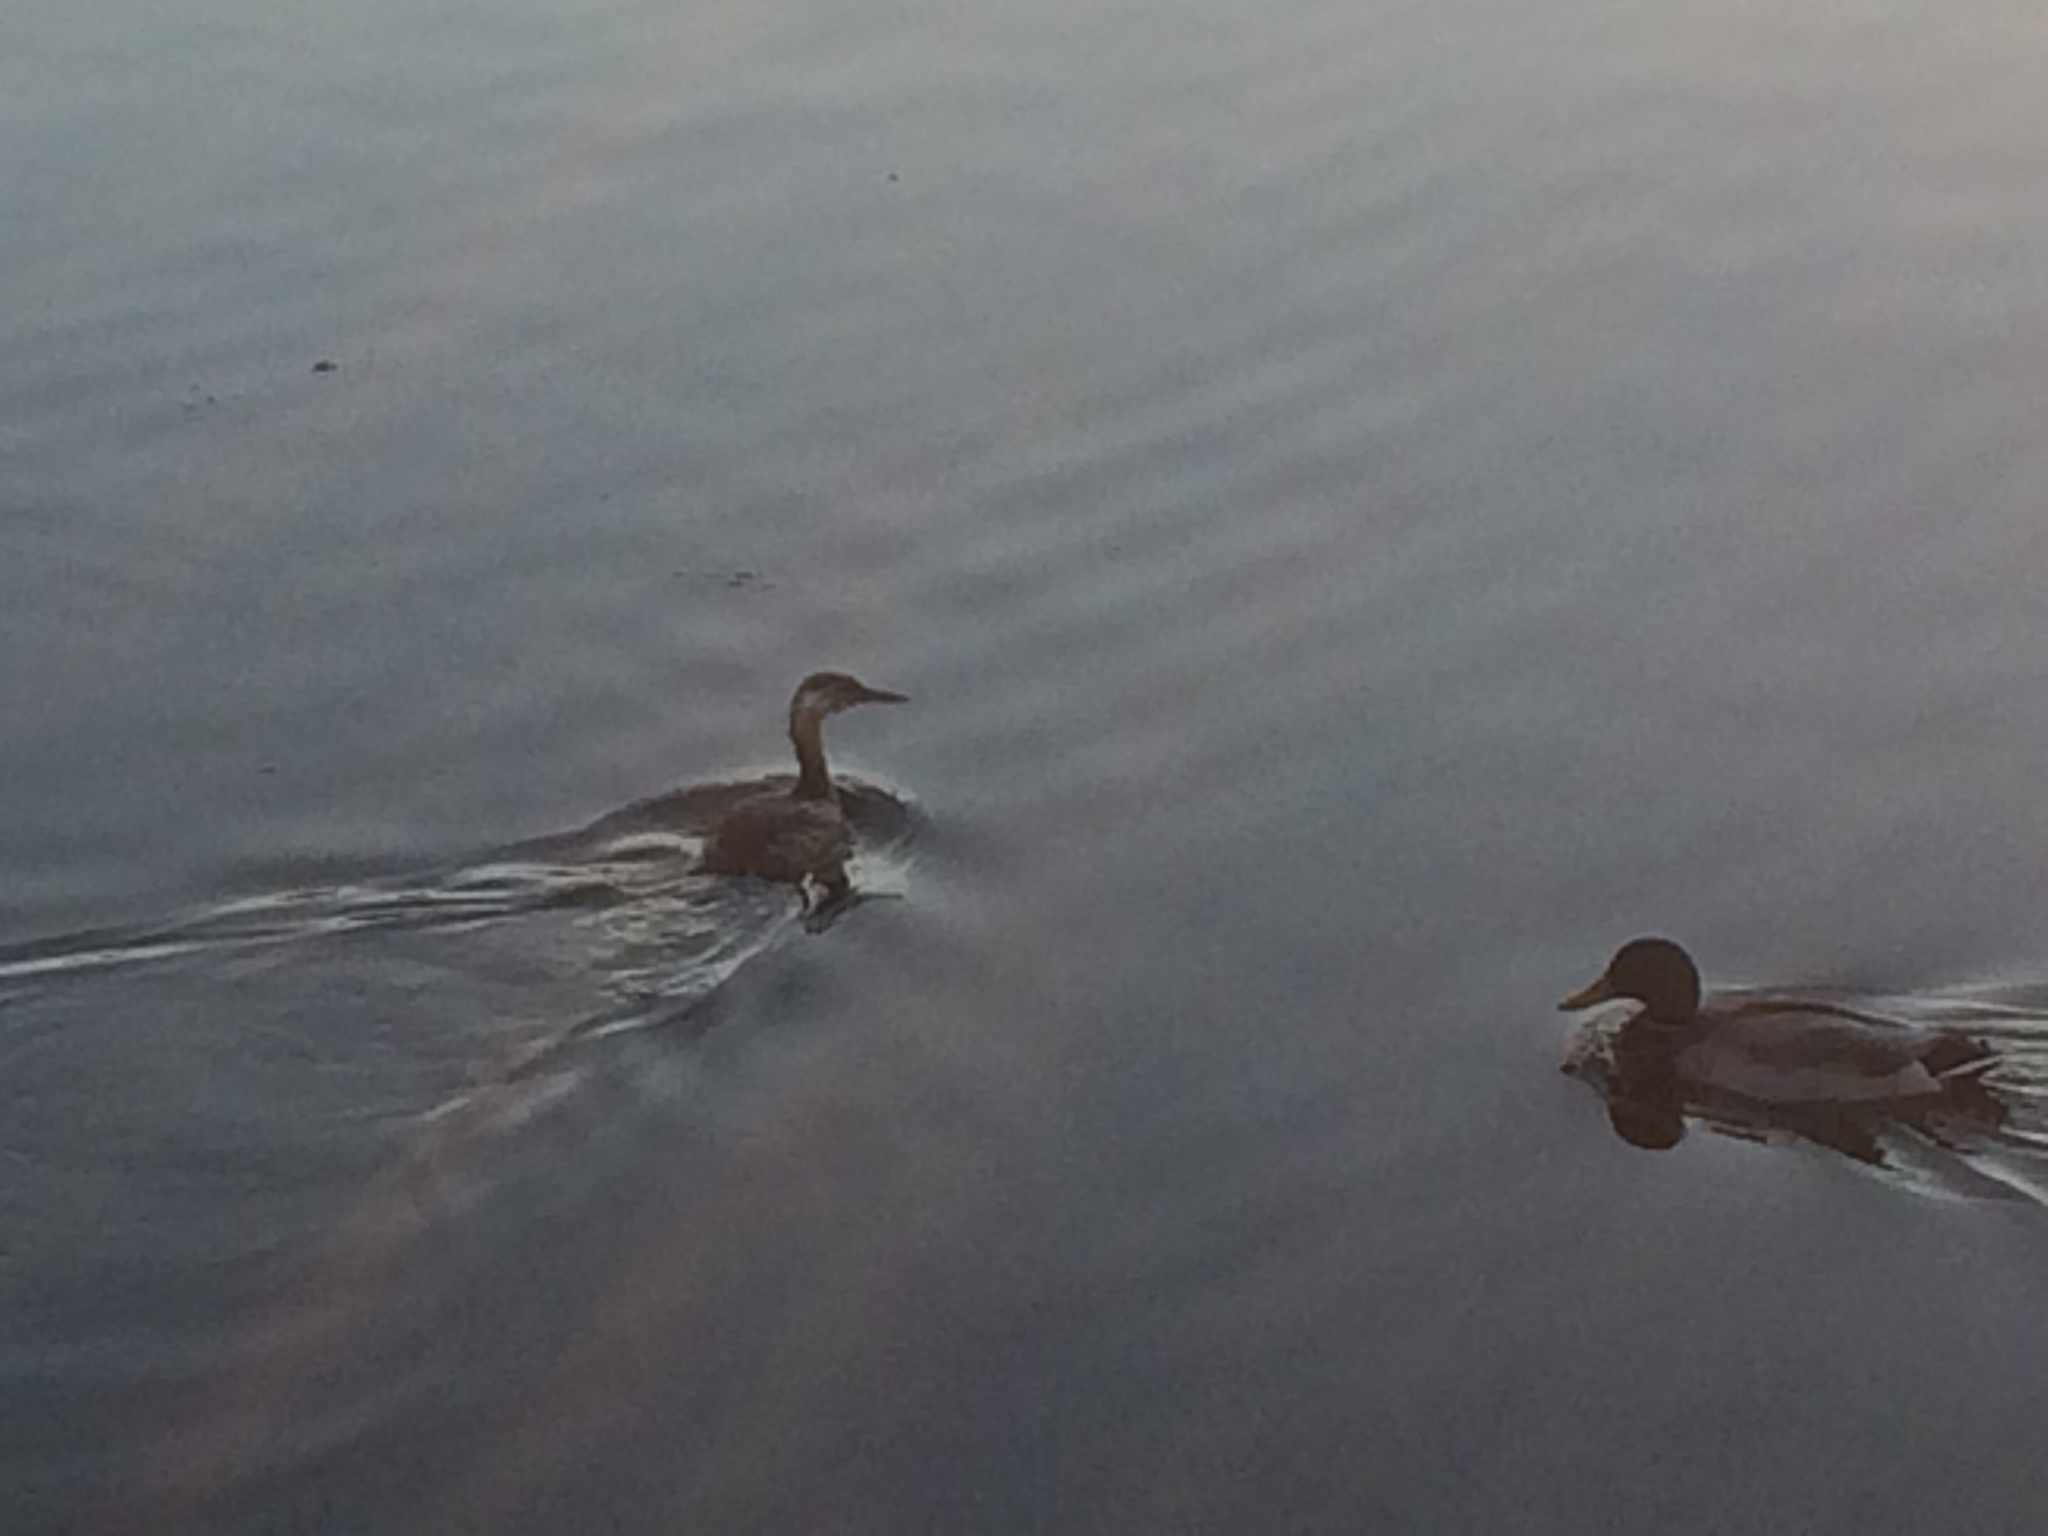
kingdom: Animalia
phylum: Chordata
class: Aves
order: Podicipediformes
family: Podicipedidae
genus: Podiceps
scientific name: Podiceps grisegena
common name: Red-necked grebe
